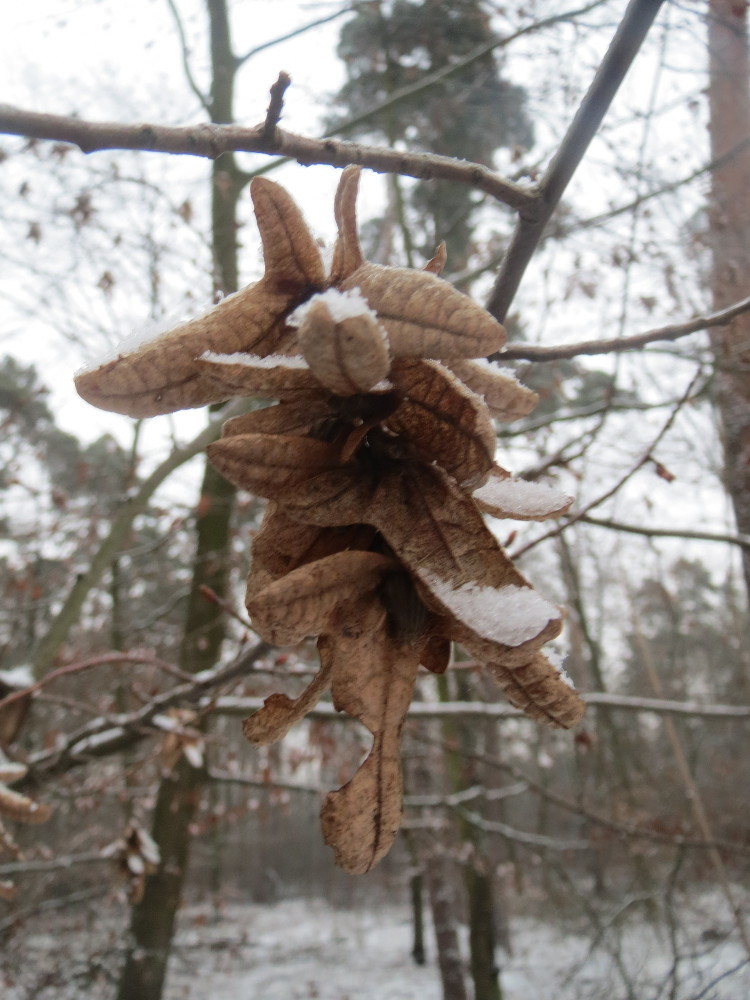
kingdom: Plantae
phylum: Tracheophyta
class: Magnoliopsida
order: Fagales
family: Betulaceae
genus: Carpinus
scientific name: Carpinus betulus
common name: Hornbeam
